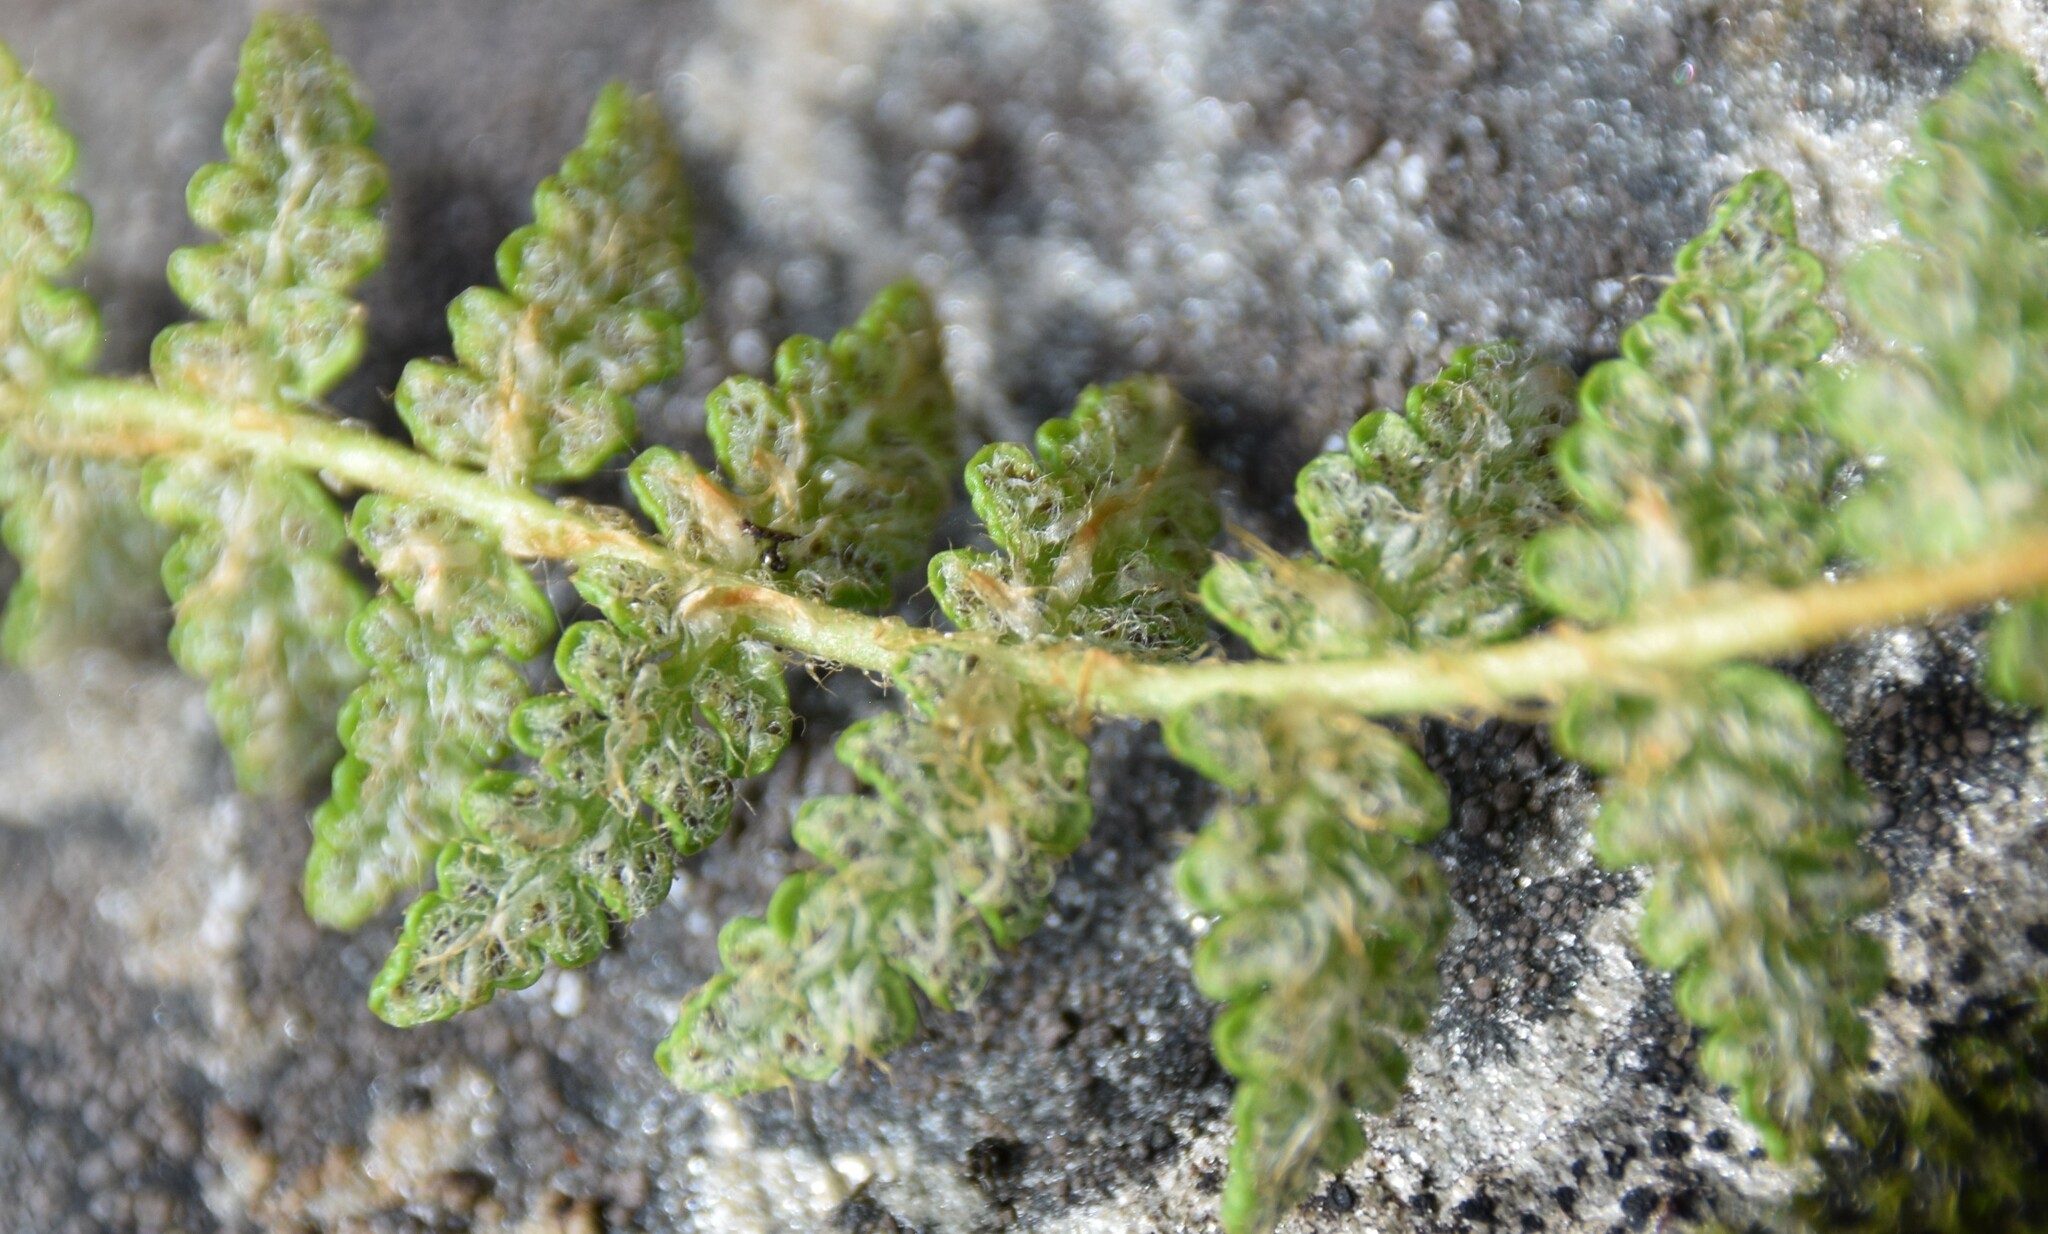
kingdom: Plantae
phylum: Tracheophyta
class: Polypodiopsida
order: Polypodiales
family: Woodsiaceae
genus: Woodsia
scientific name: Woodsia ilvensis
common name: Fragrant woodsia
